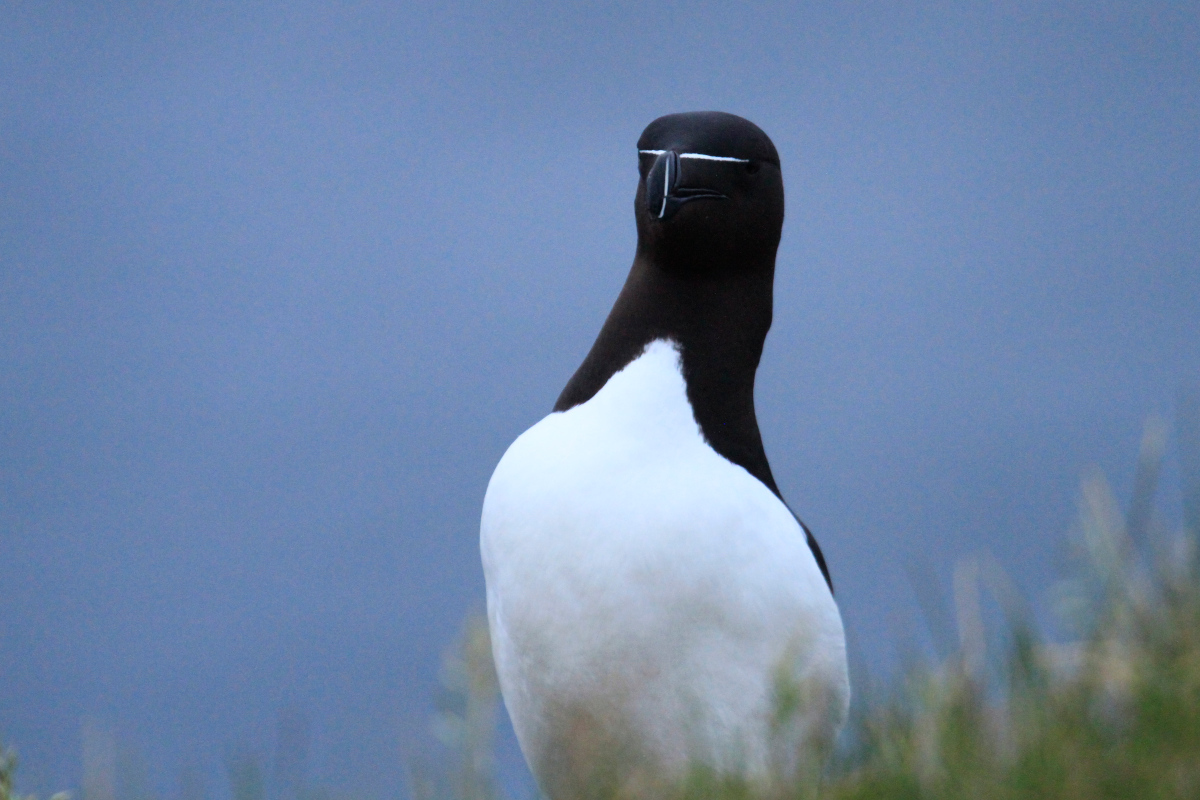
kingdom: Animalia
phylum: Chordata
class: Aves
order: Charadriiformes
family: Alcidae
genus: Alca
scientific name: Alca torda
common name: Razorbill
